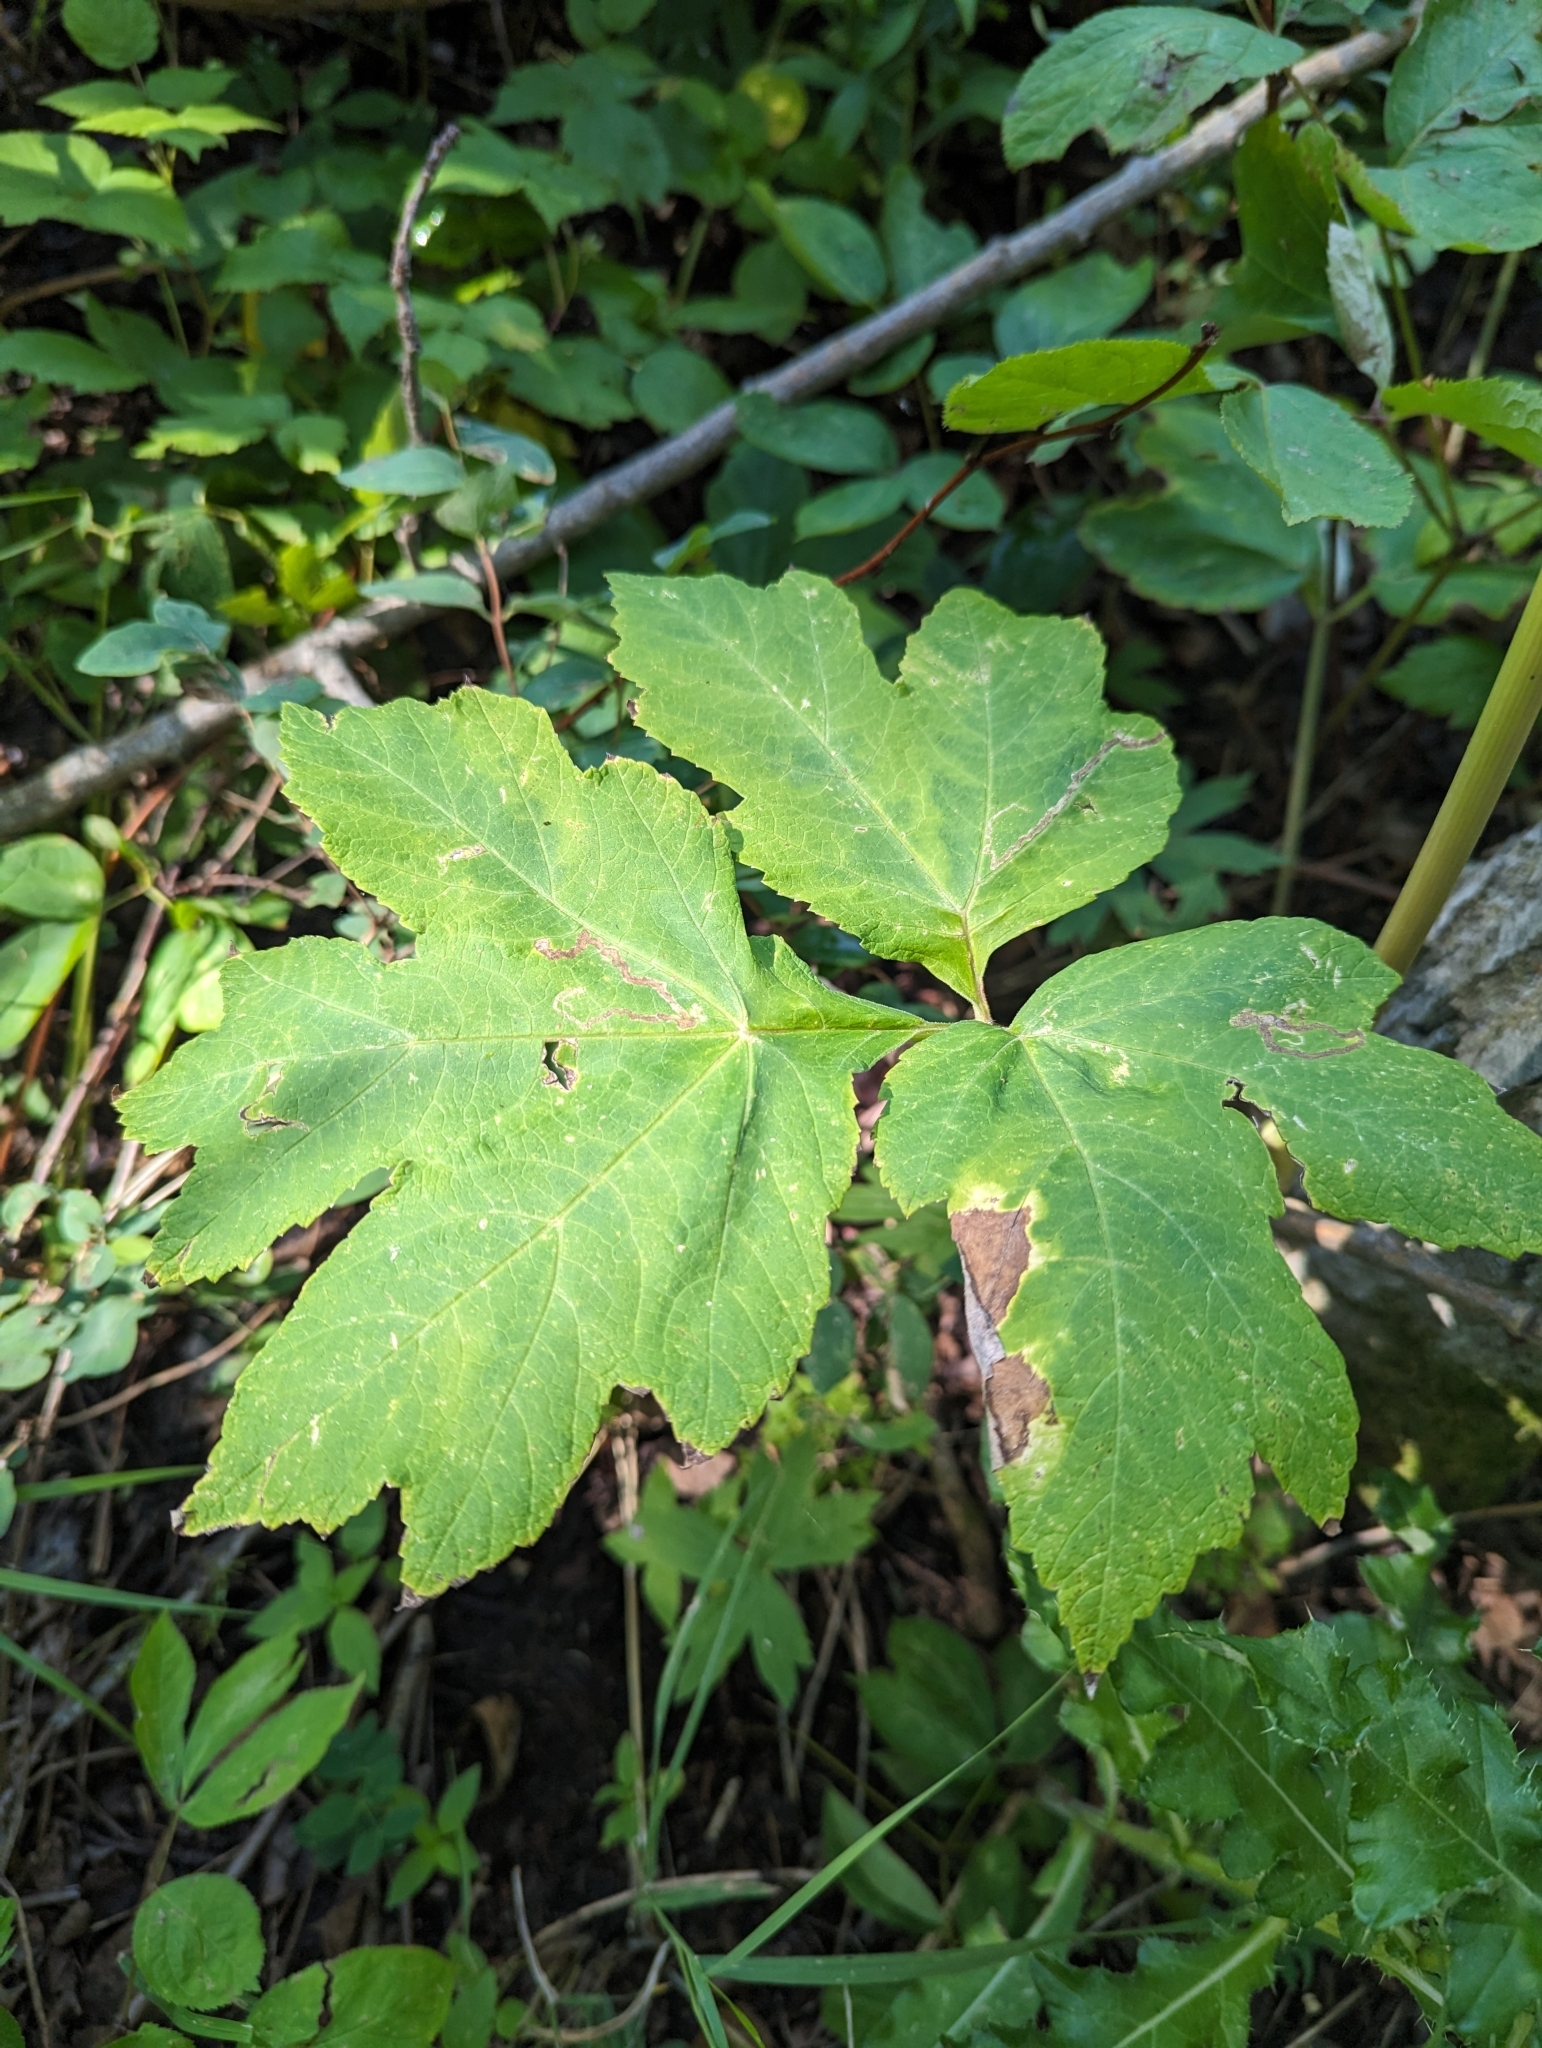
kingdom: Plantae
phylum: Tracheophyta
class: Magnoliopsida
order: Apiales
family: Apiaceae
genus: Heracleum
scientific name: Heracleum maximum
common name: American cow parsnip
